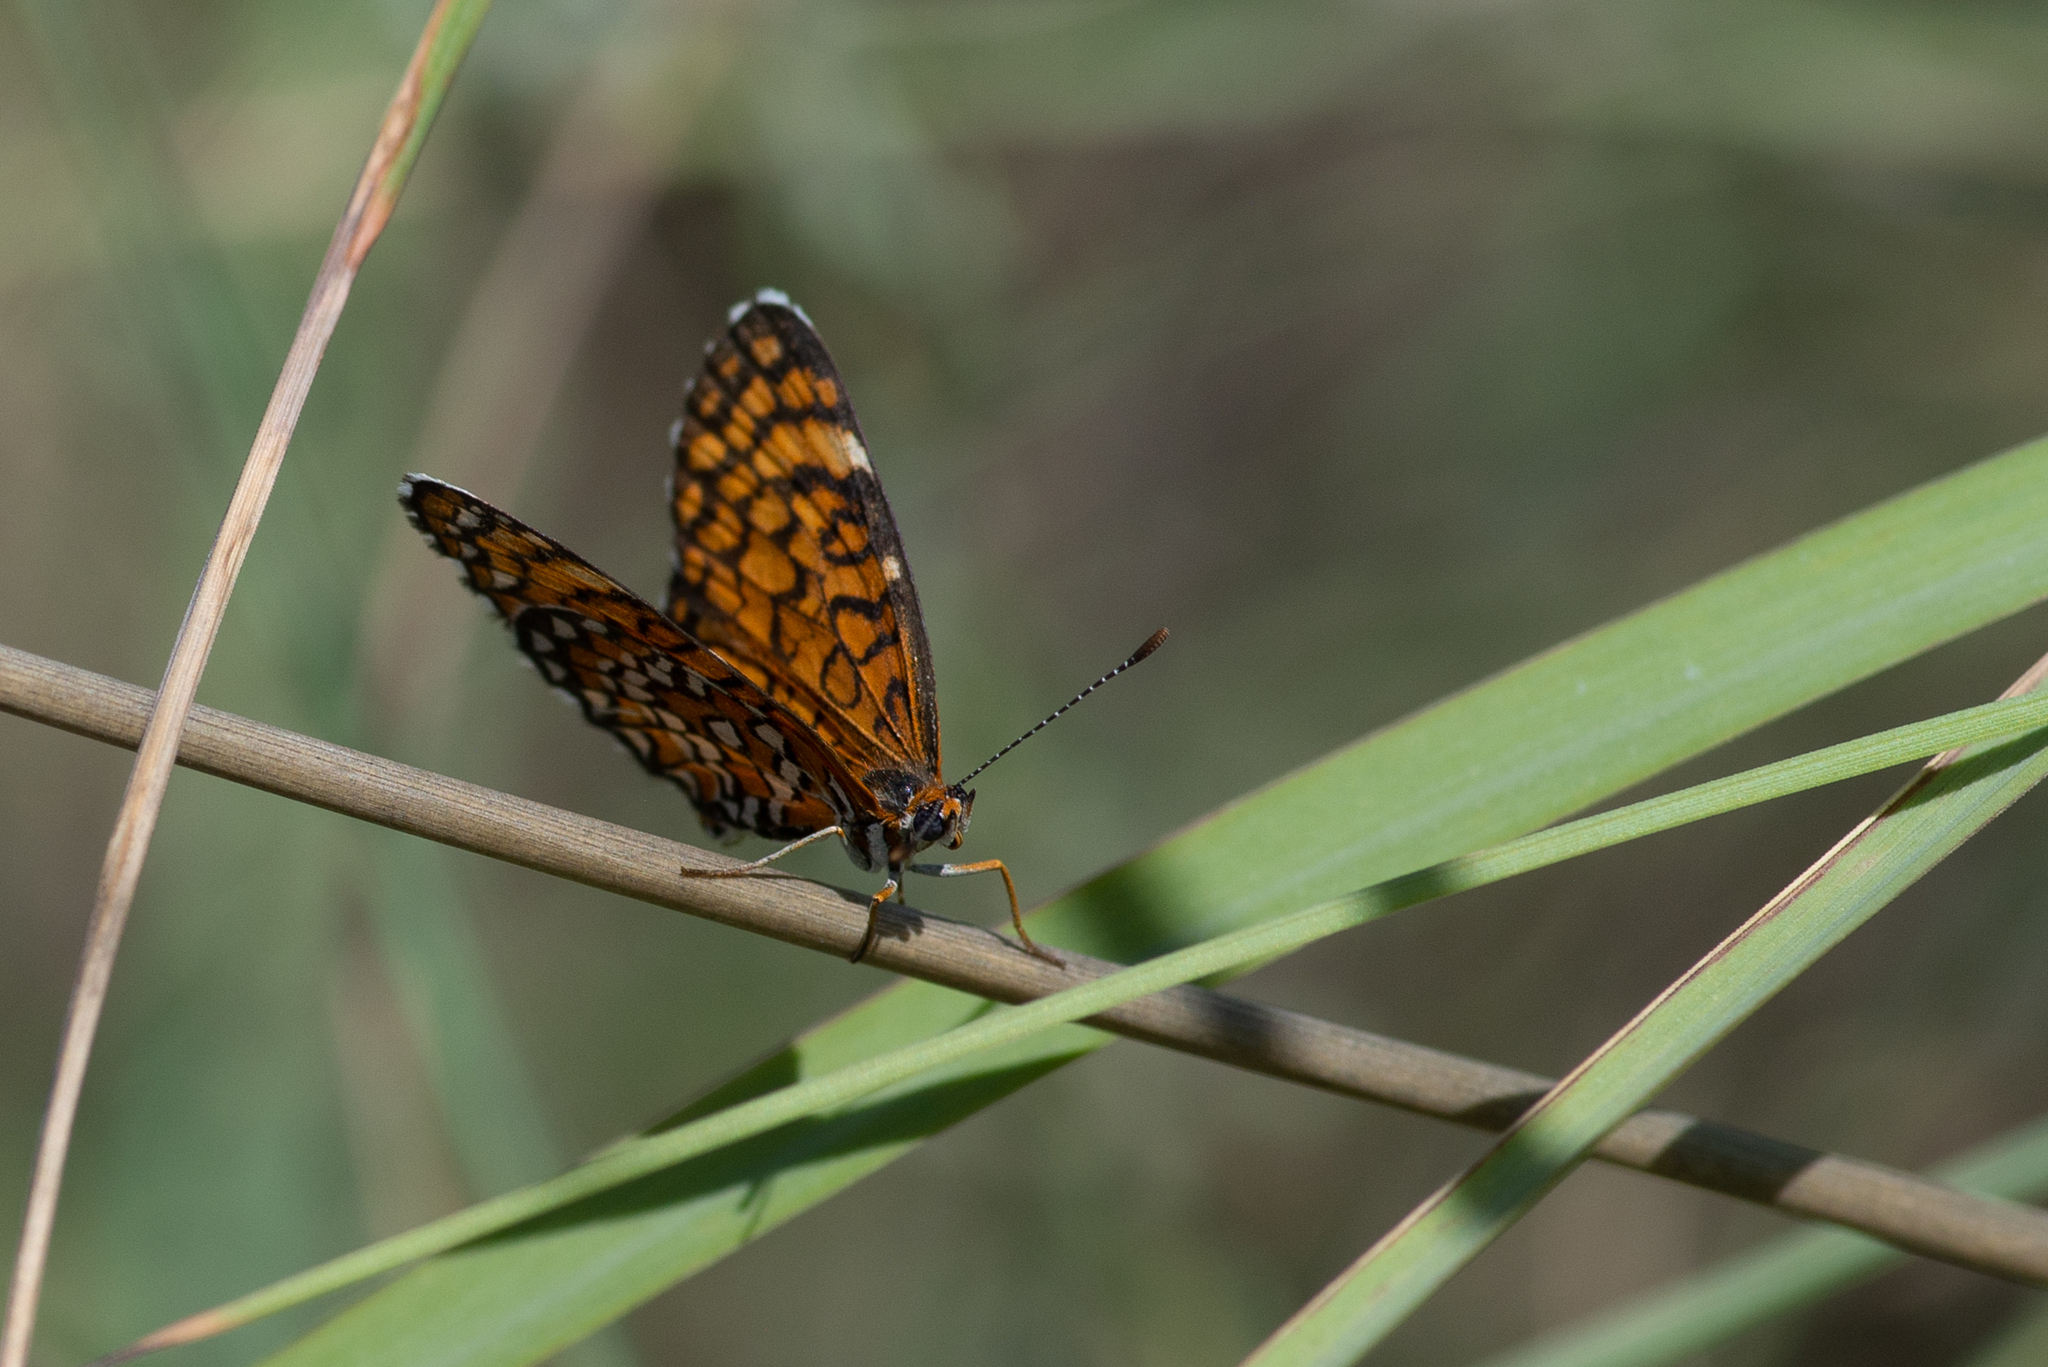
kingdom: Animalia
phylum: Arthropoda
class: Insecta
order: Lepidoptera
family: Nymphalidae
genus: Dymasia
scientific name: Dymasia dymas
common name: Tiny checkerspot
